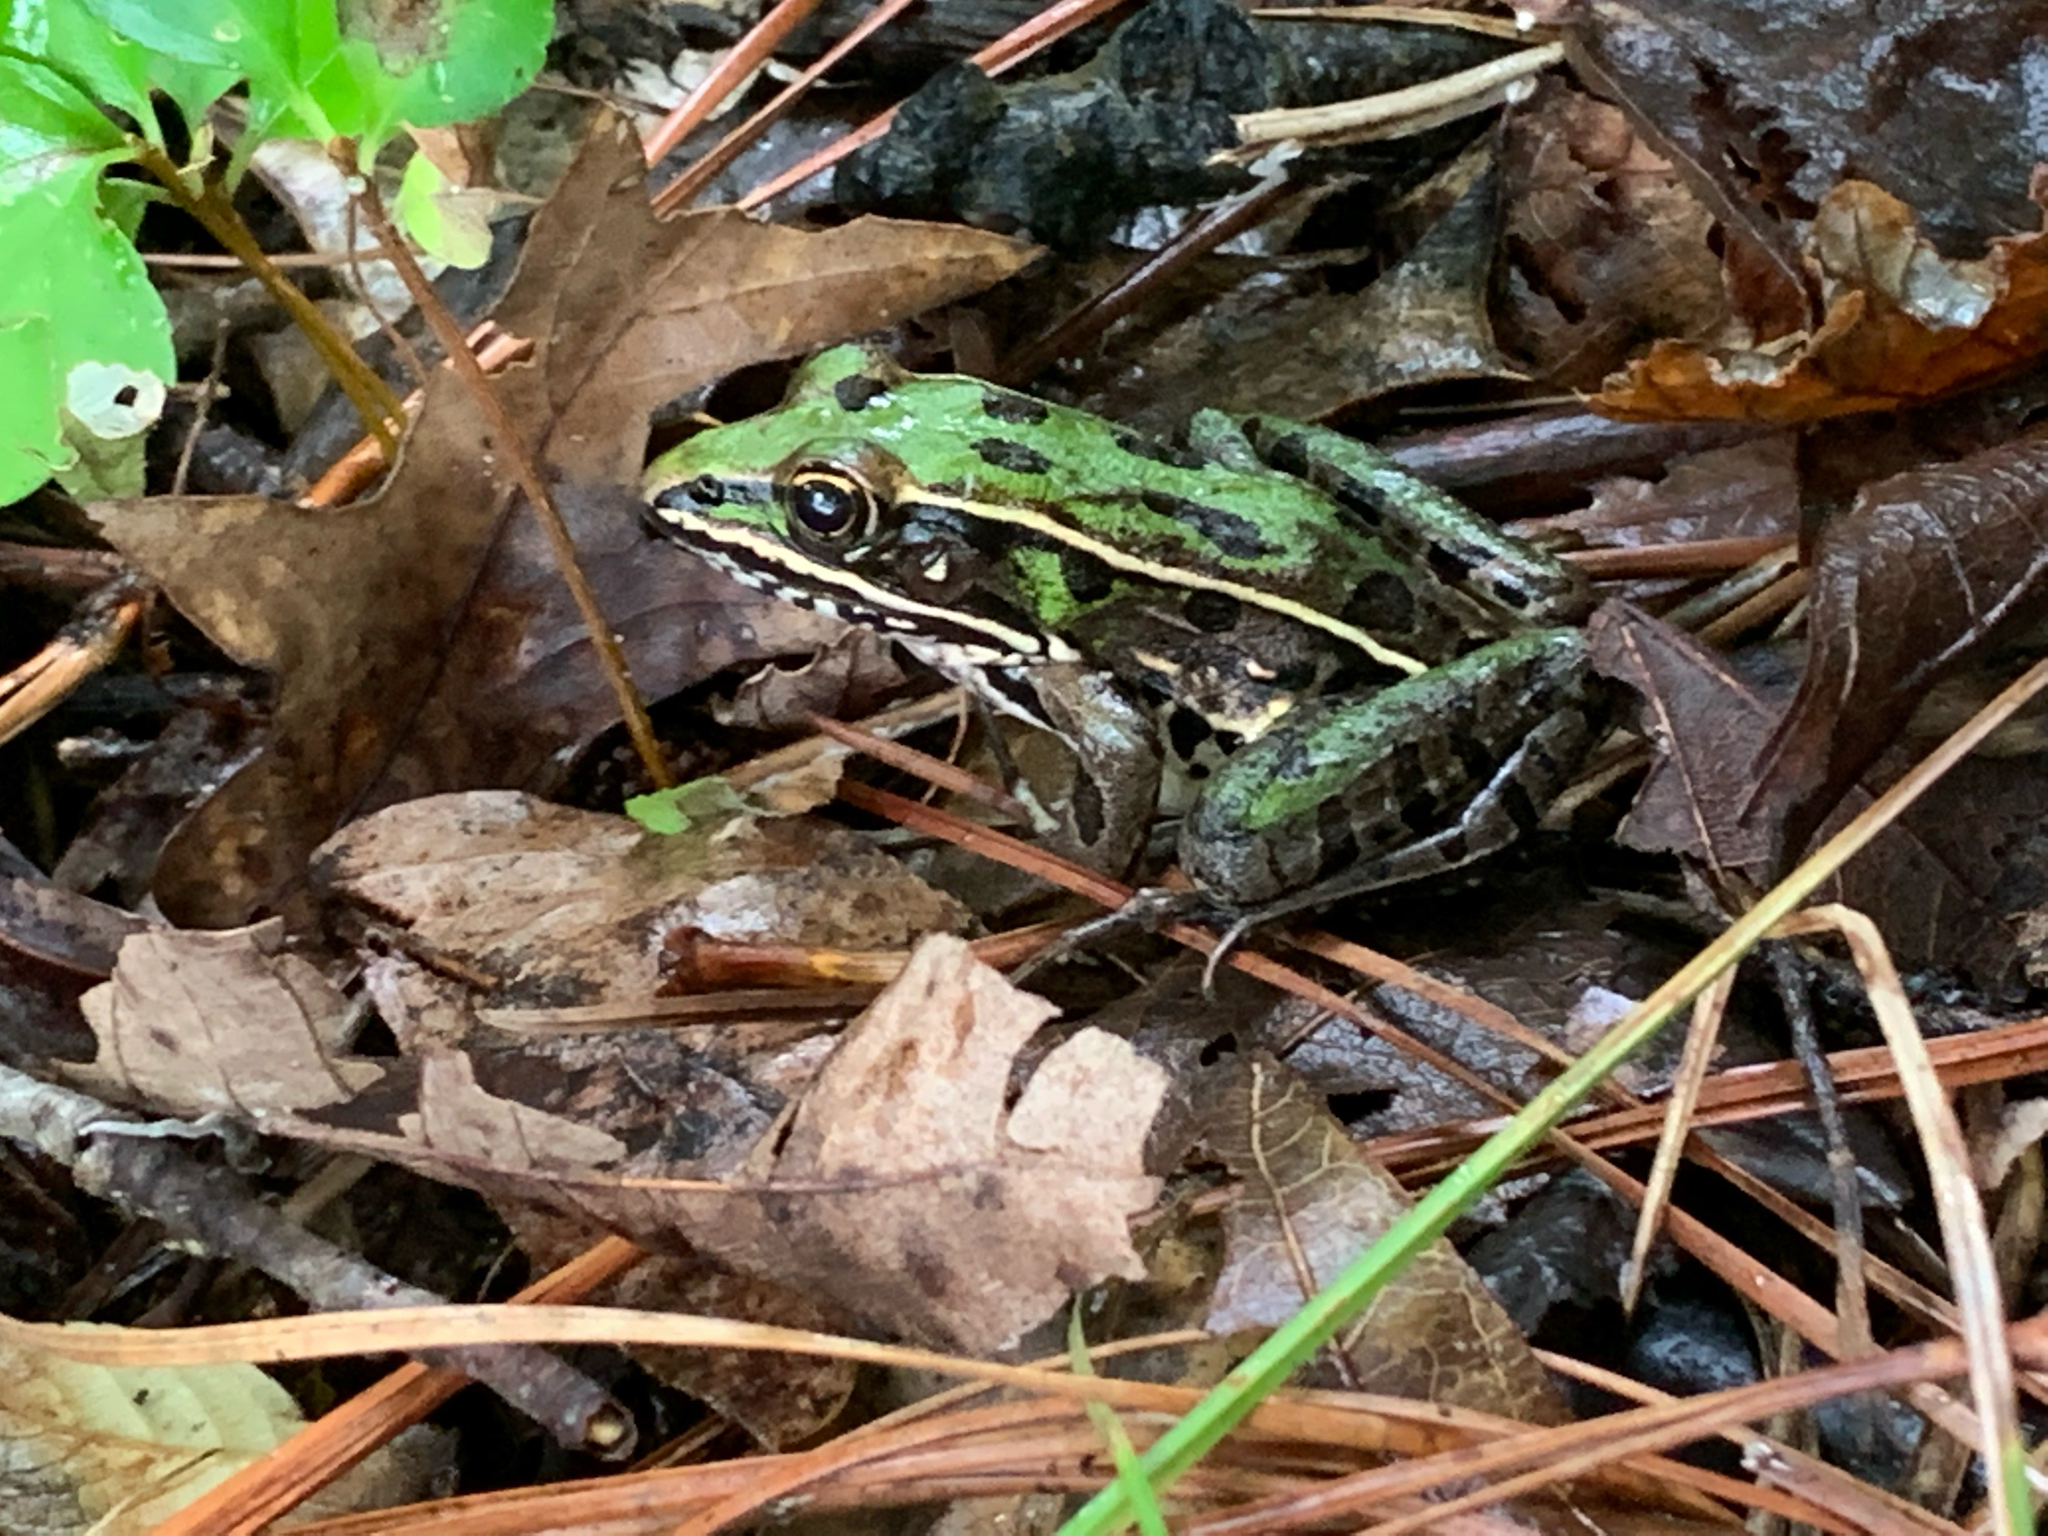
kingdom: Animalia
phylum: Chordata
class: Amphibia
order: Anura
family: Ranidae
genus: Lithobates
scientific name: Lithobates sphenocephalus
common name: Southern leopard frog
